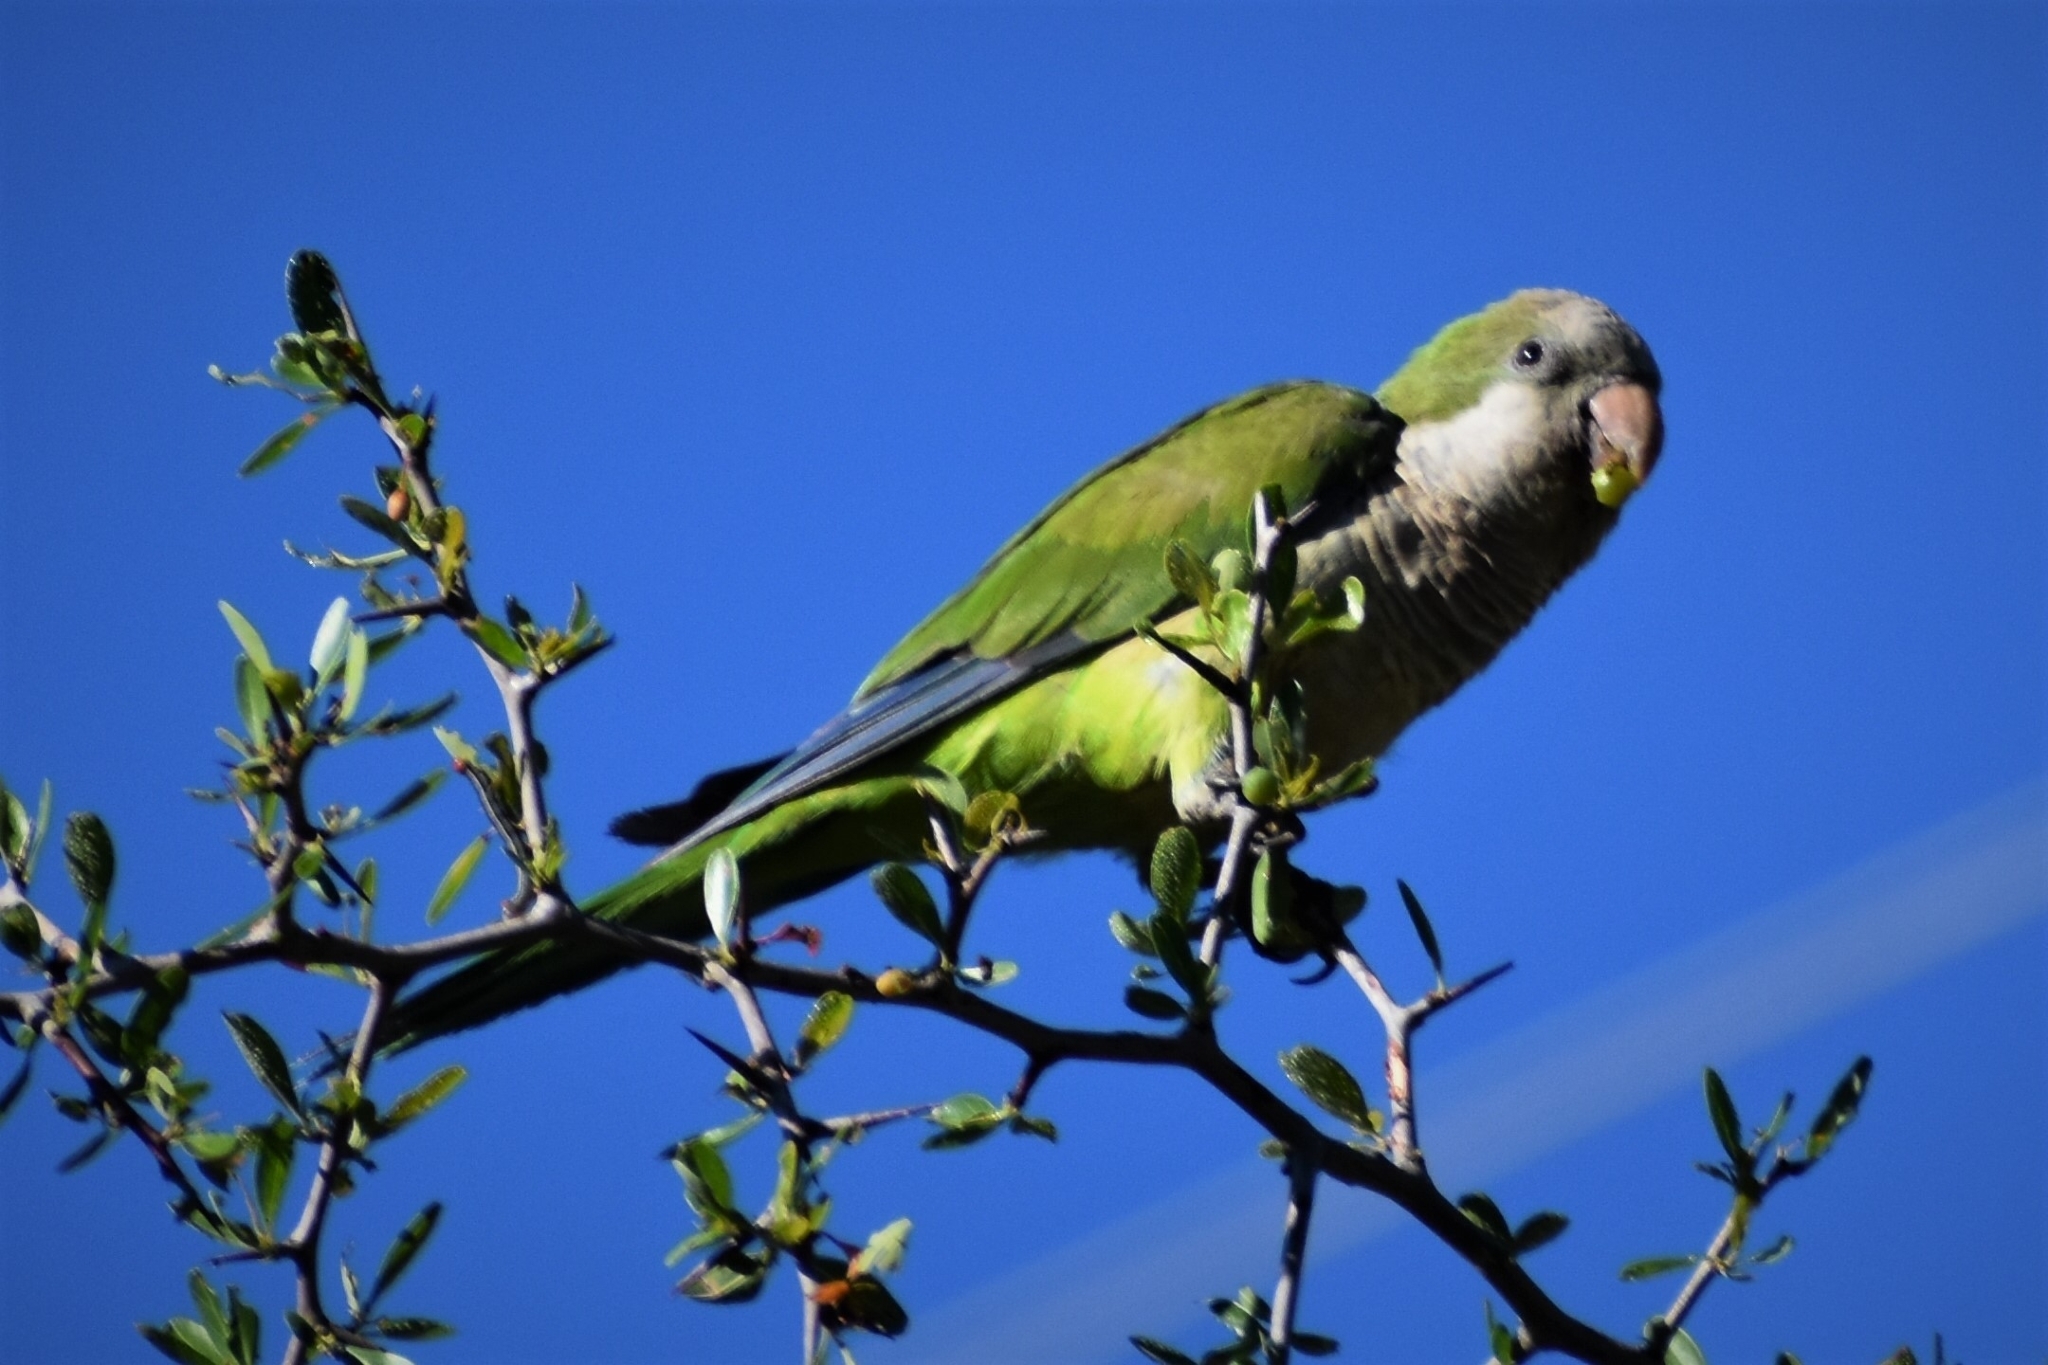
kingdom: Animalia
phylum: Chordata
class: Aves
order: Psittaciformes
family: Psittacidae
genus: Myiopsitta
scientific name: Myiopsitta monachus
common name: Monk parakeet
